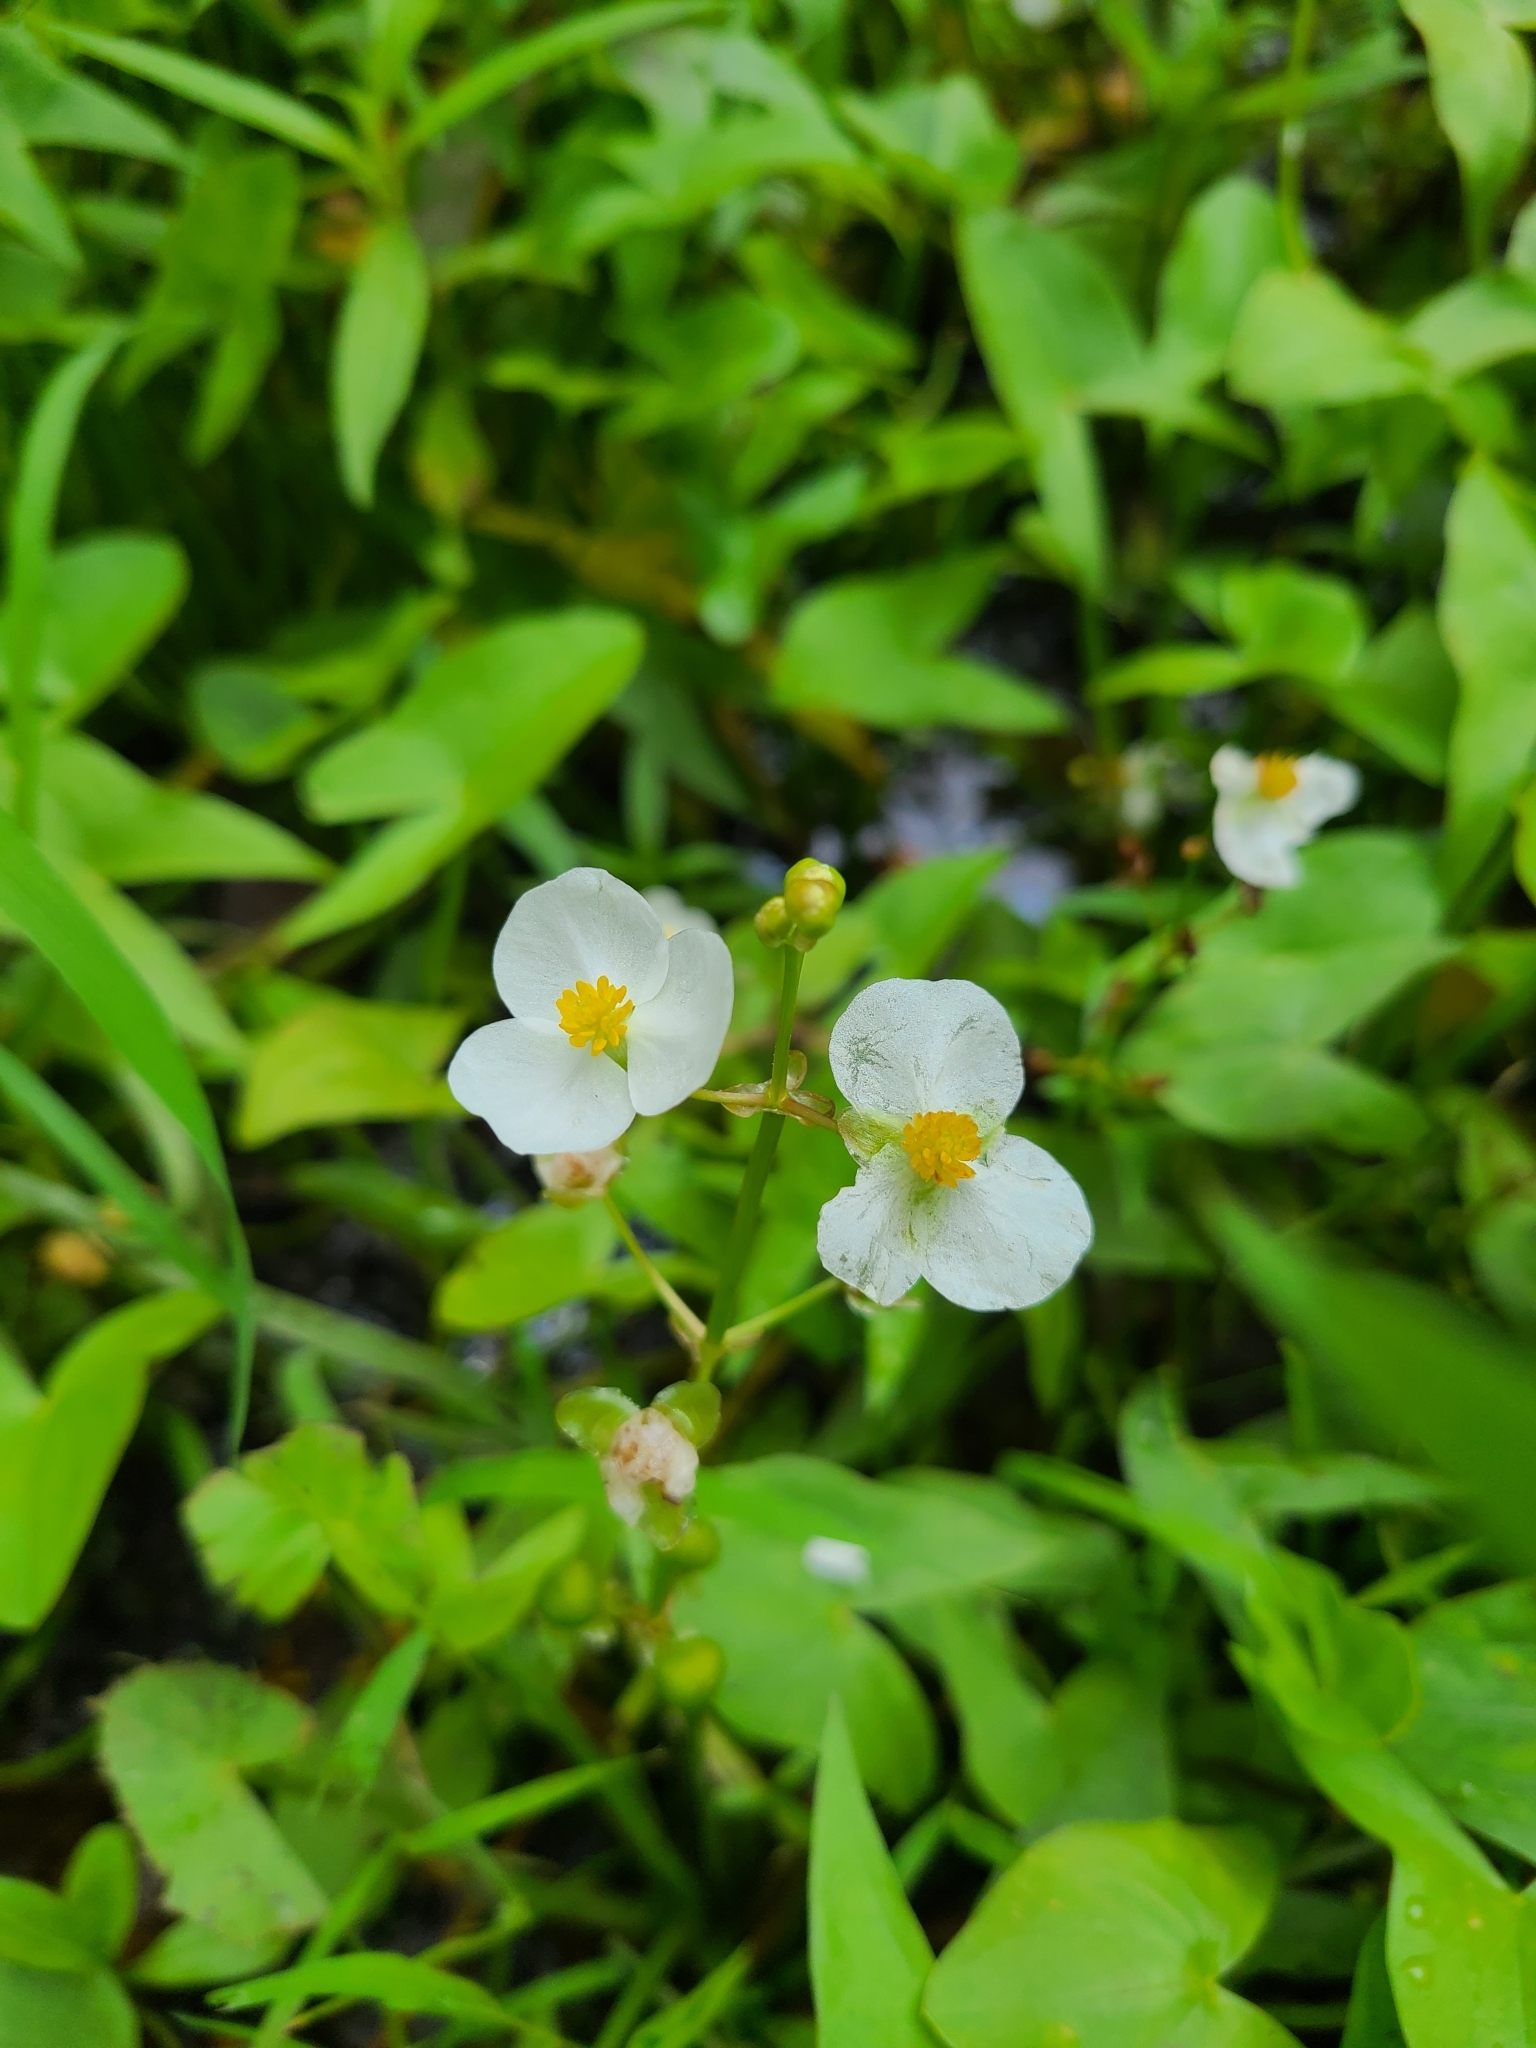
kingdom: Plantae
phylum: Tracheophyta
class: Liliopsida
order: Alismatales
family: Alismataceae
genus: Sagittaria
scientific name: Sagittaria latifolia
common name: Duck-potato
